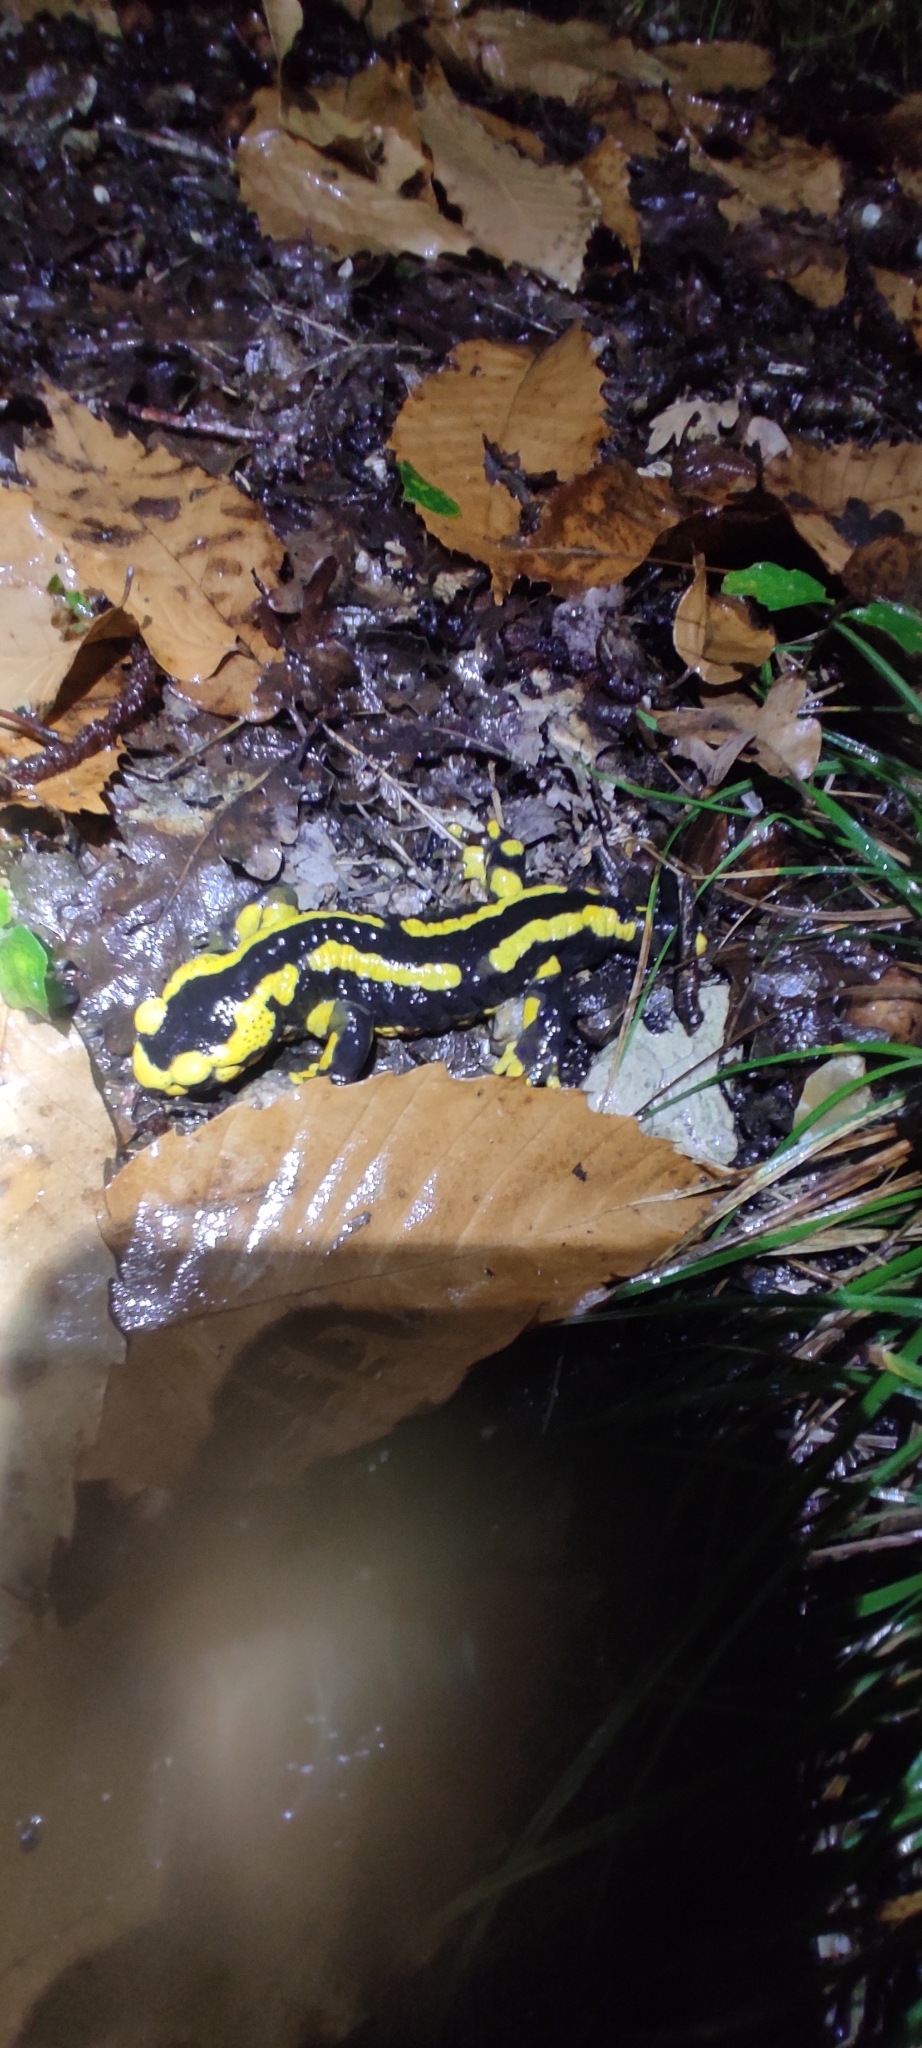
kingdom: Animalia
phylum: Chordata
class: Amphibia
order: Caudata
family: Salamandridae
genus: Salamandra
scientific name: Salamandra salamandra
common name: Fire salamander
